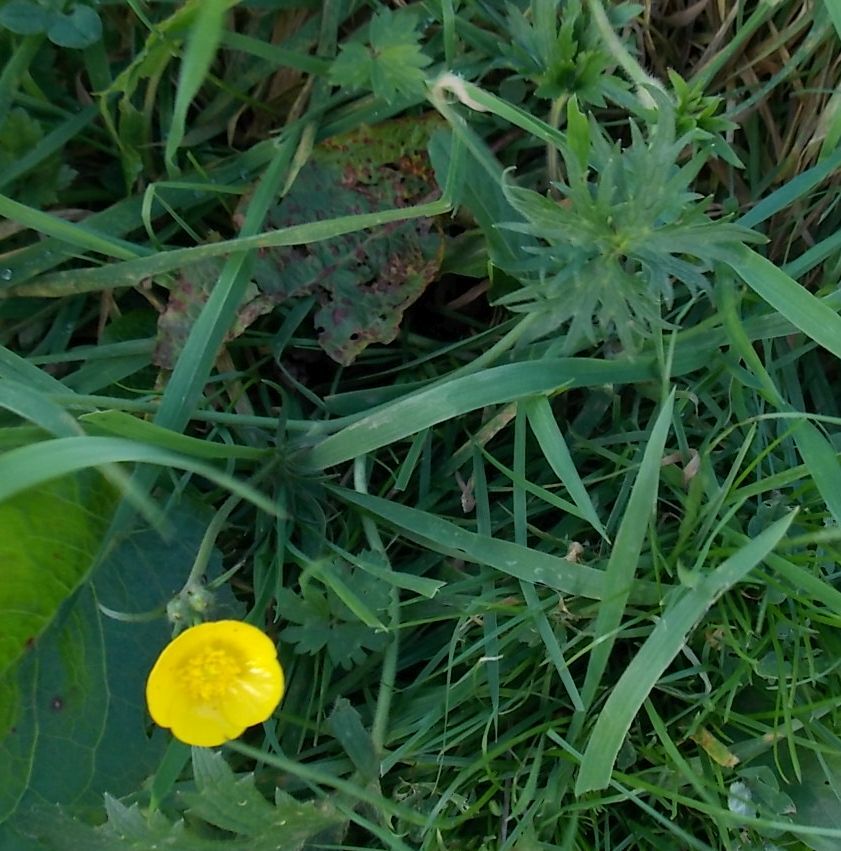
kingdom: Plantae
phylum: Tracheophyta
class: Magnoliopsida
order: Ranunculales
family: Ranunculaceae
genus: Ranunculus
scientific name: Ranunculus acris
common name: Meadow buttercup
